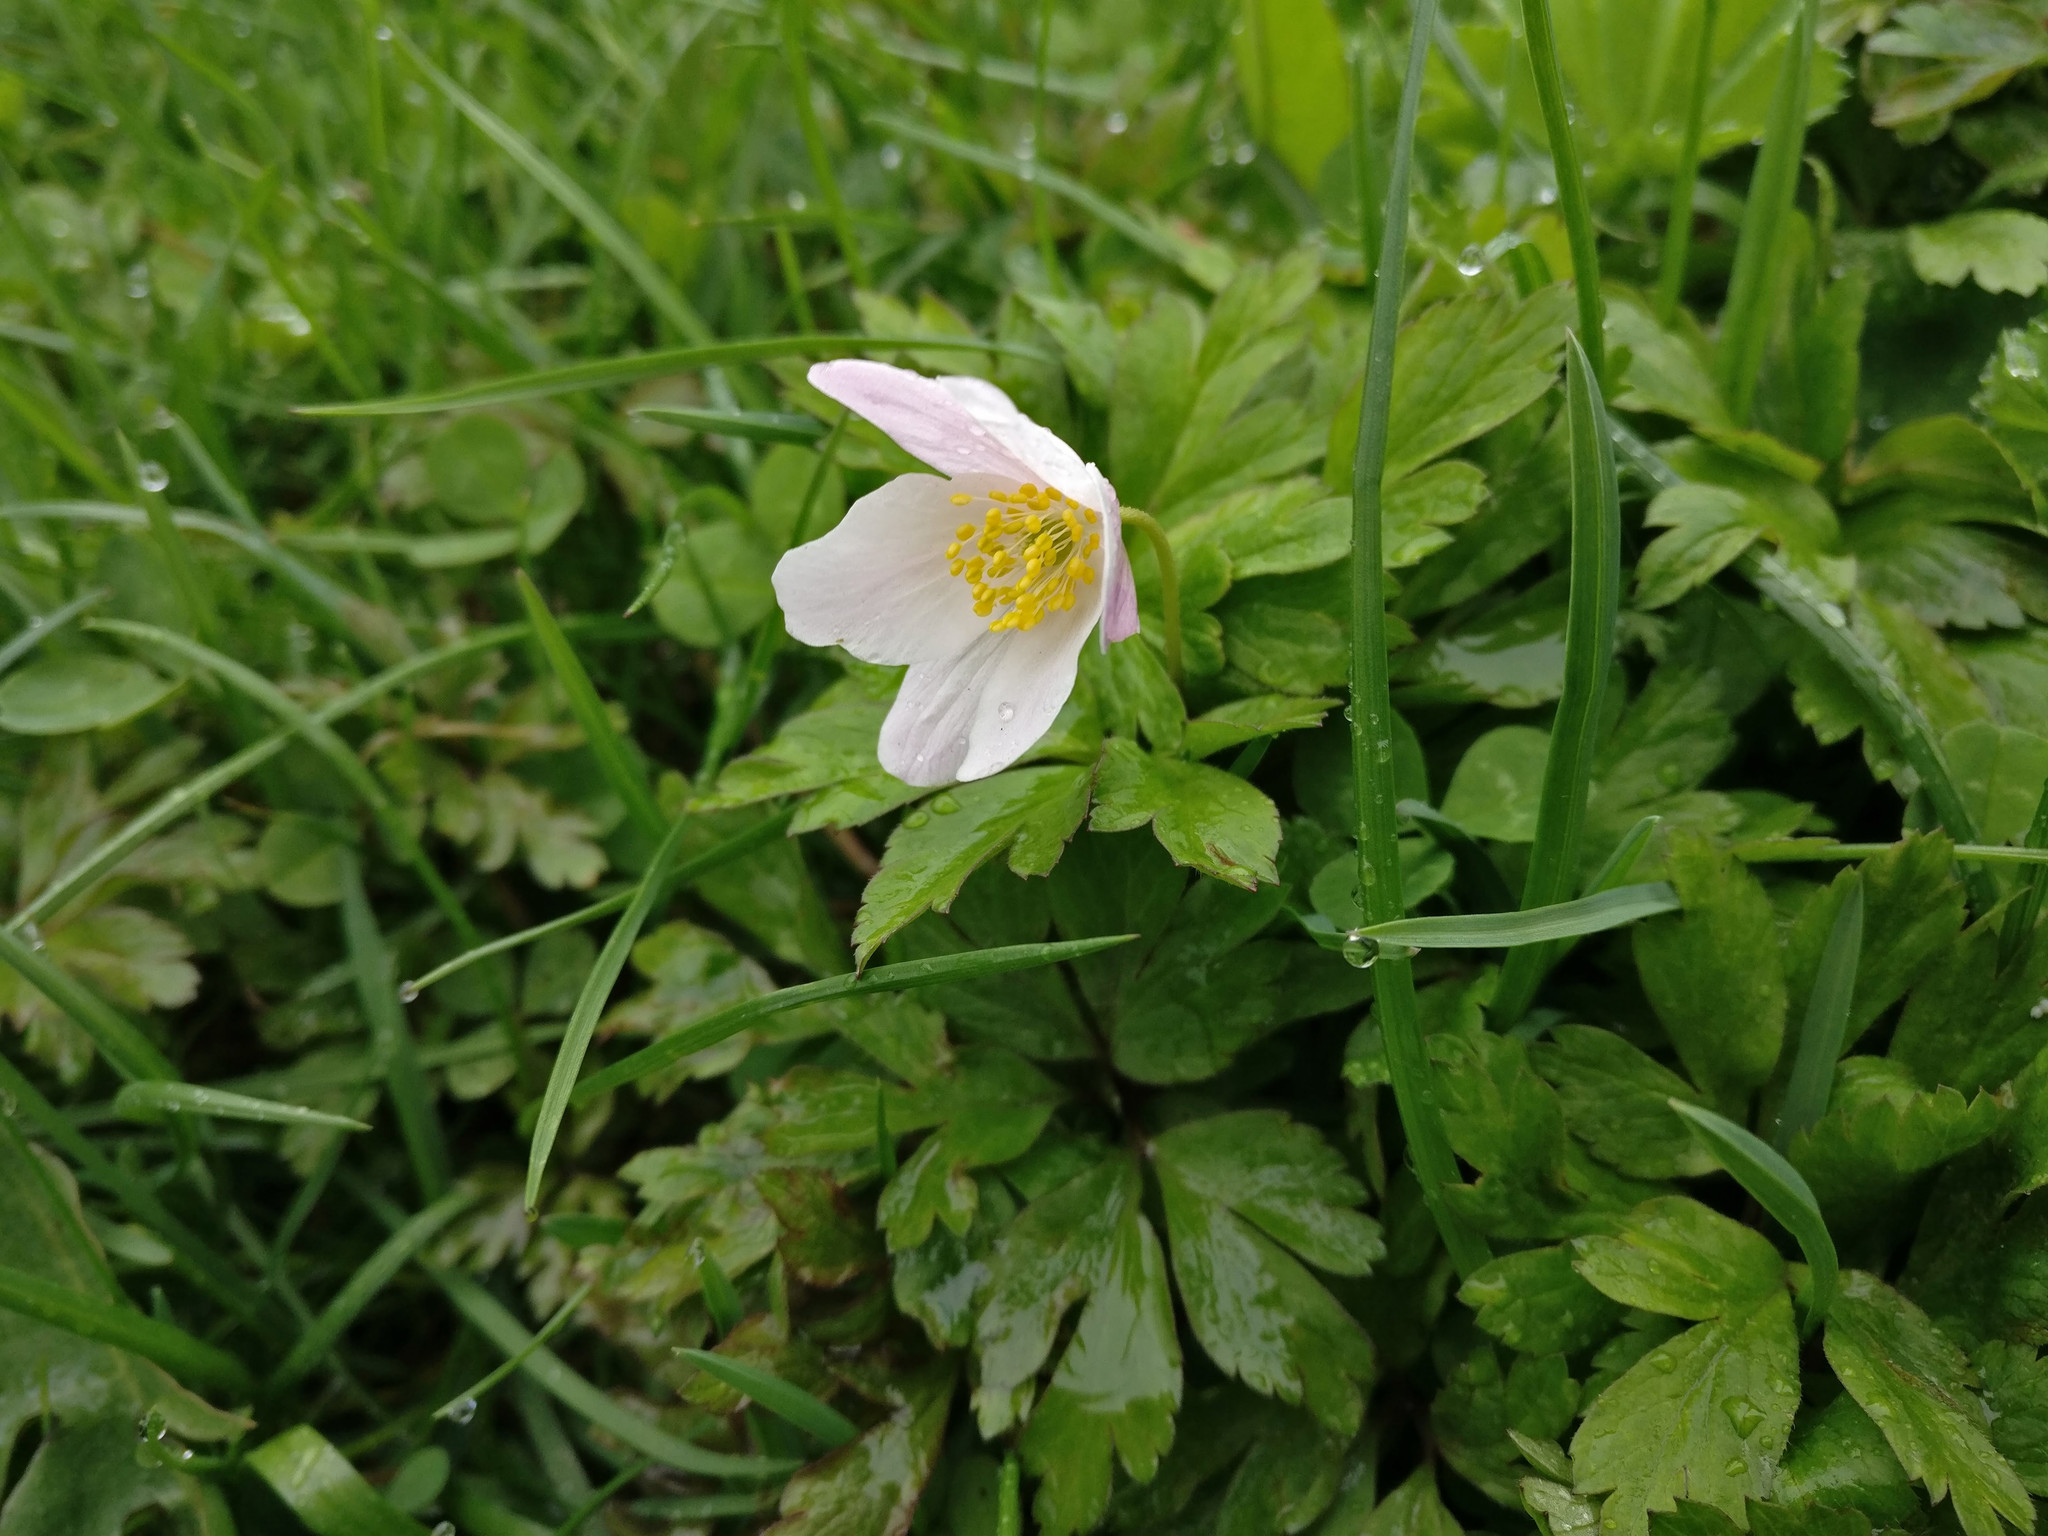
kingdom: Plantae
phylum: Tracheophyta
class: Magnoliopsida
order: Ranunculales
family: Ranunculaceae
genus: Anemone
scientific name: Anemone nemorosa
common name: Wood anemone
